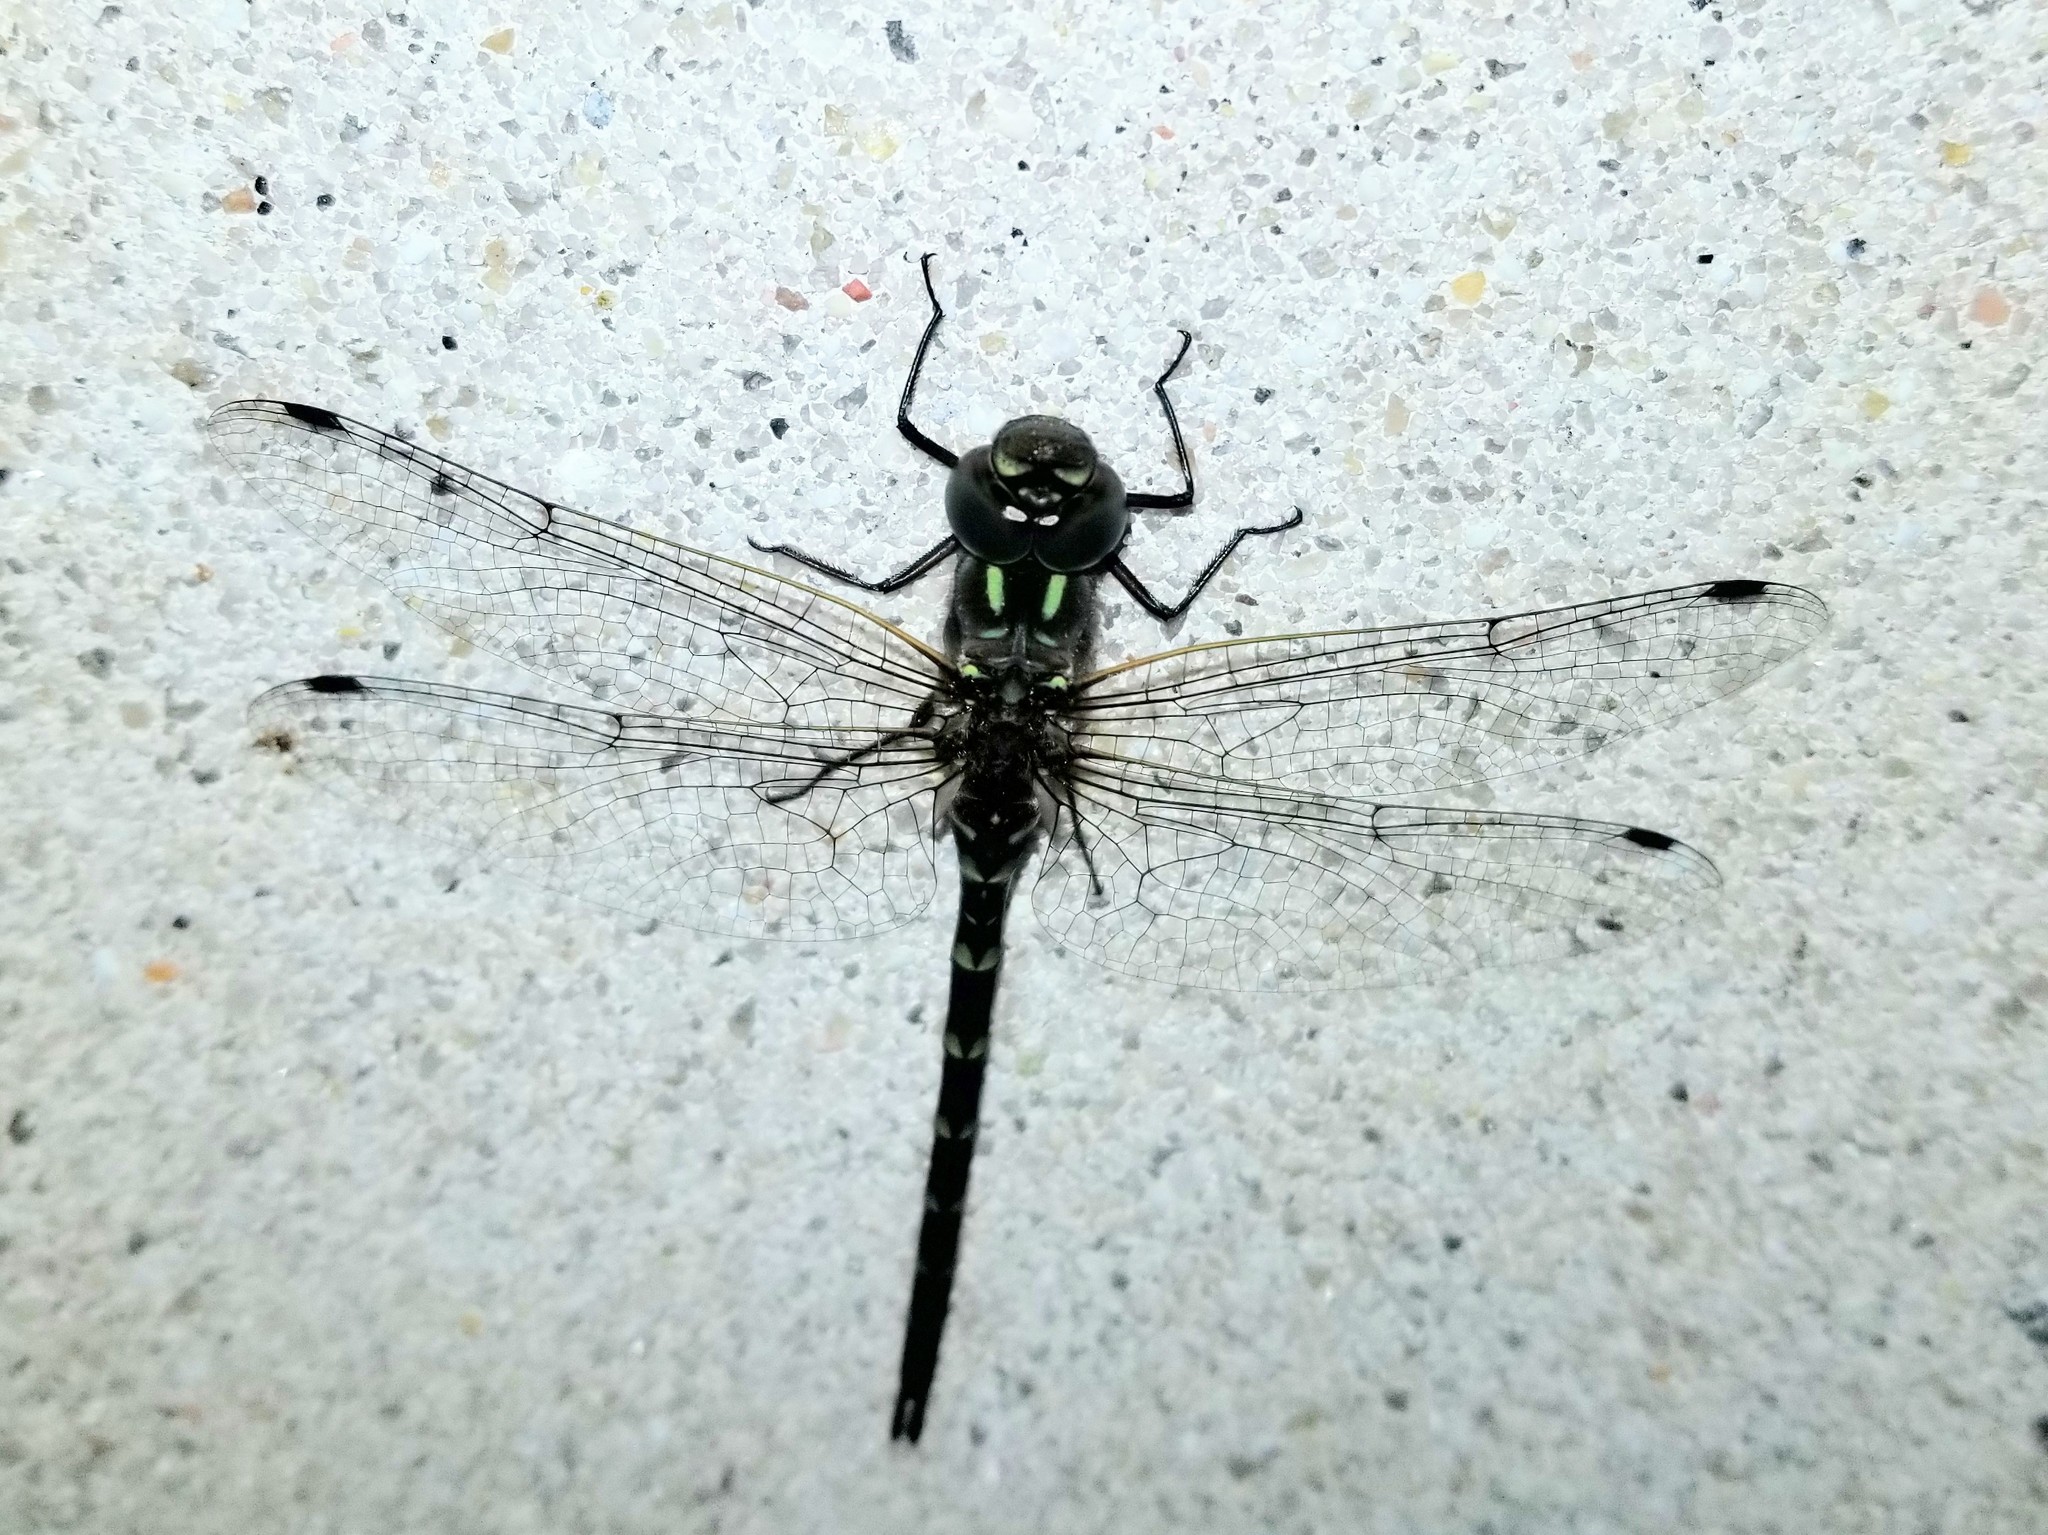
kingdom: Animalia
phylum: Arthropoda
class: Insecta
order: Odonata
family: Aeshnidae
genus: Gomphaeschna
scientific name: Gomphaeschna antilope
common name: Taper-tailed darner
